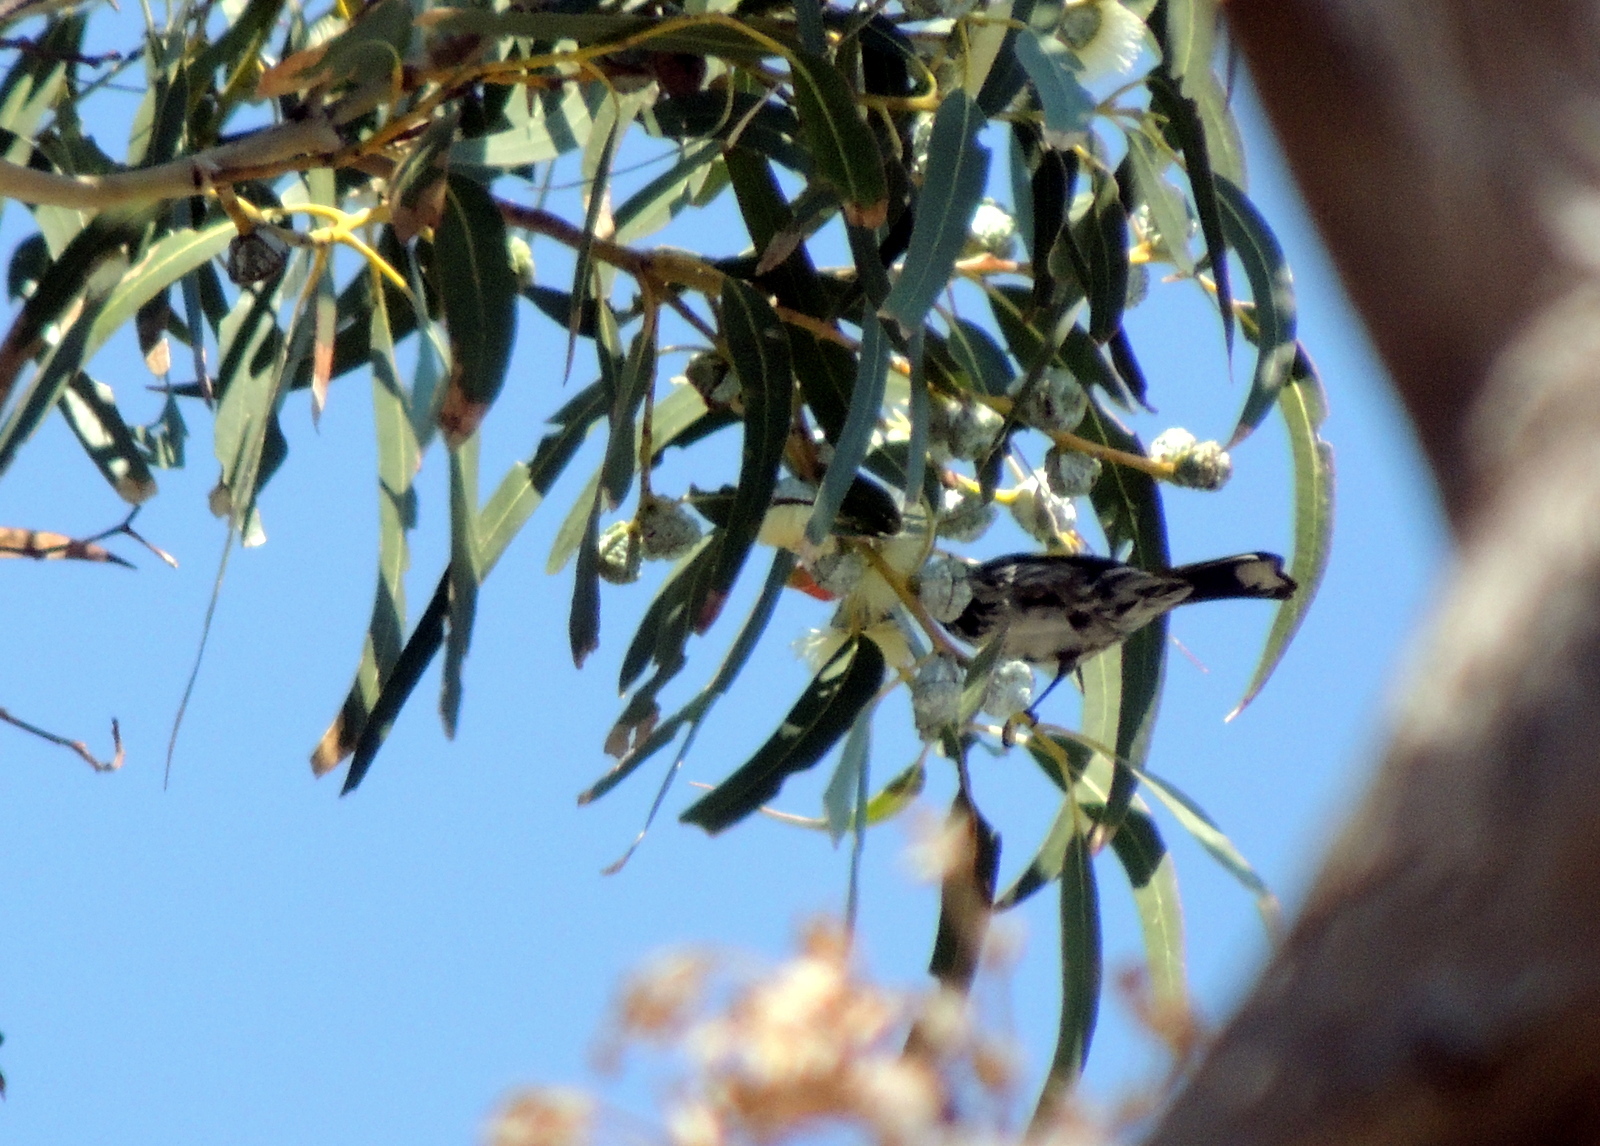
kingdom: Animalia
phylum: Chordata
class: Aves
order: Passeriformes
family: Meliphagidae
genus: Phylidonyris
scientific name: Phylidonyris novaehollandiae
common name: New holland honeyeater
